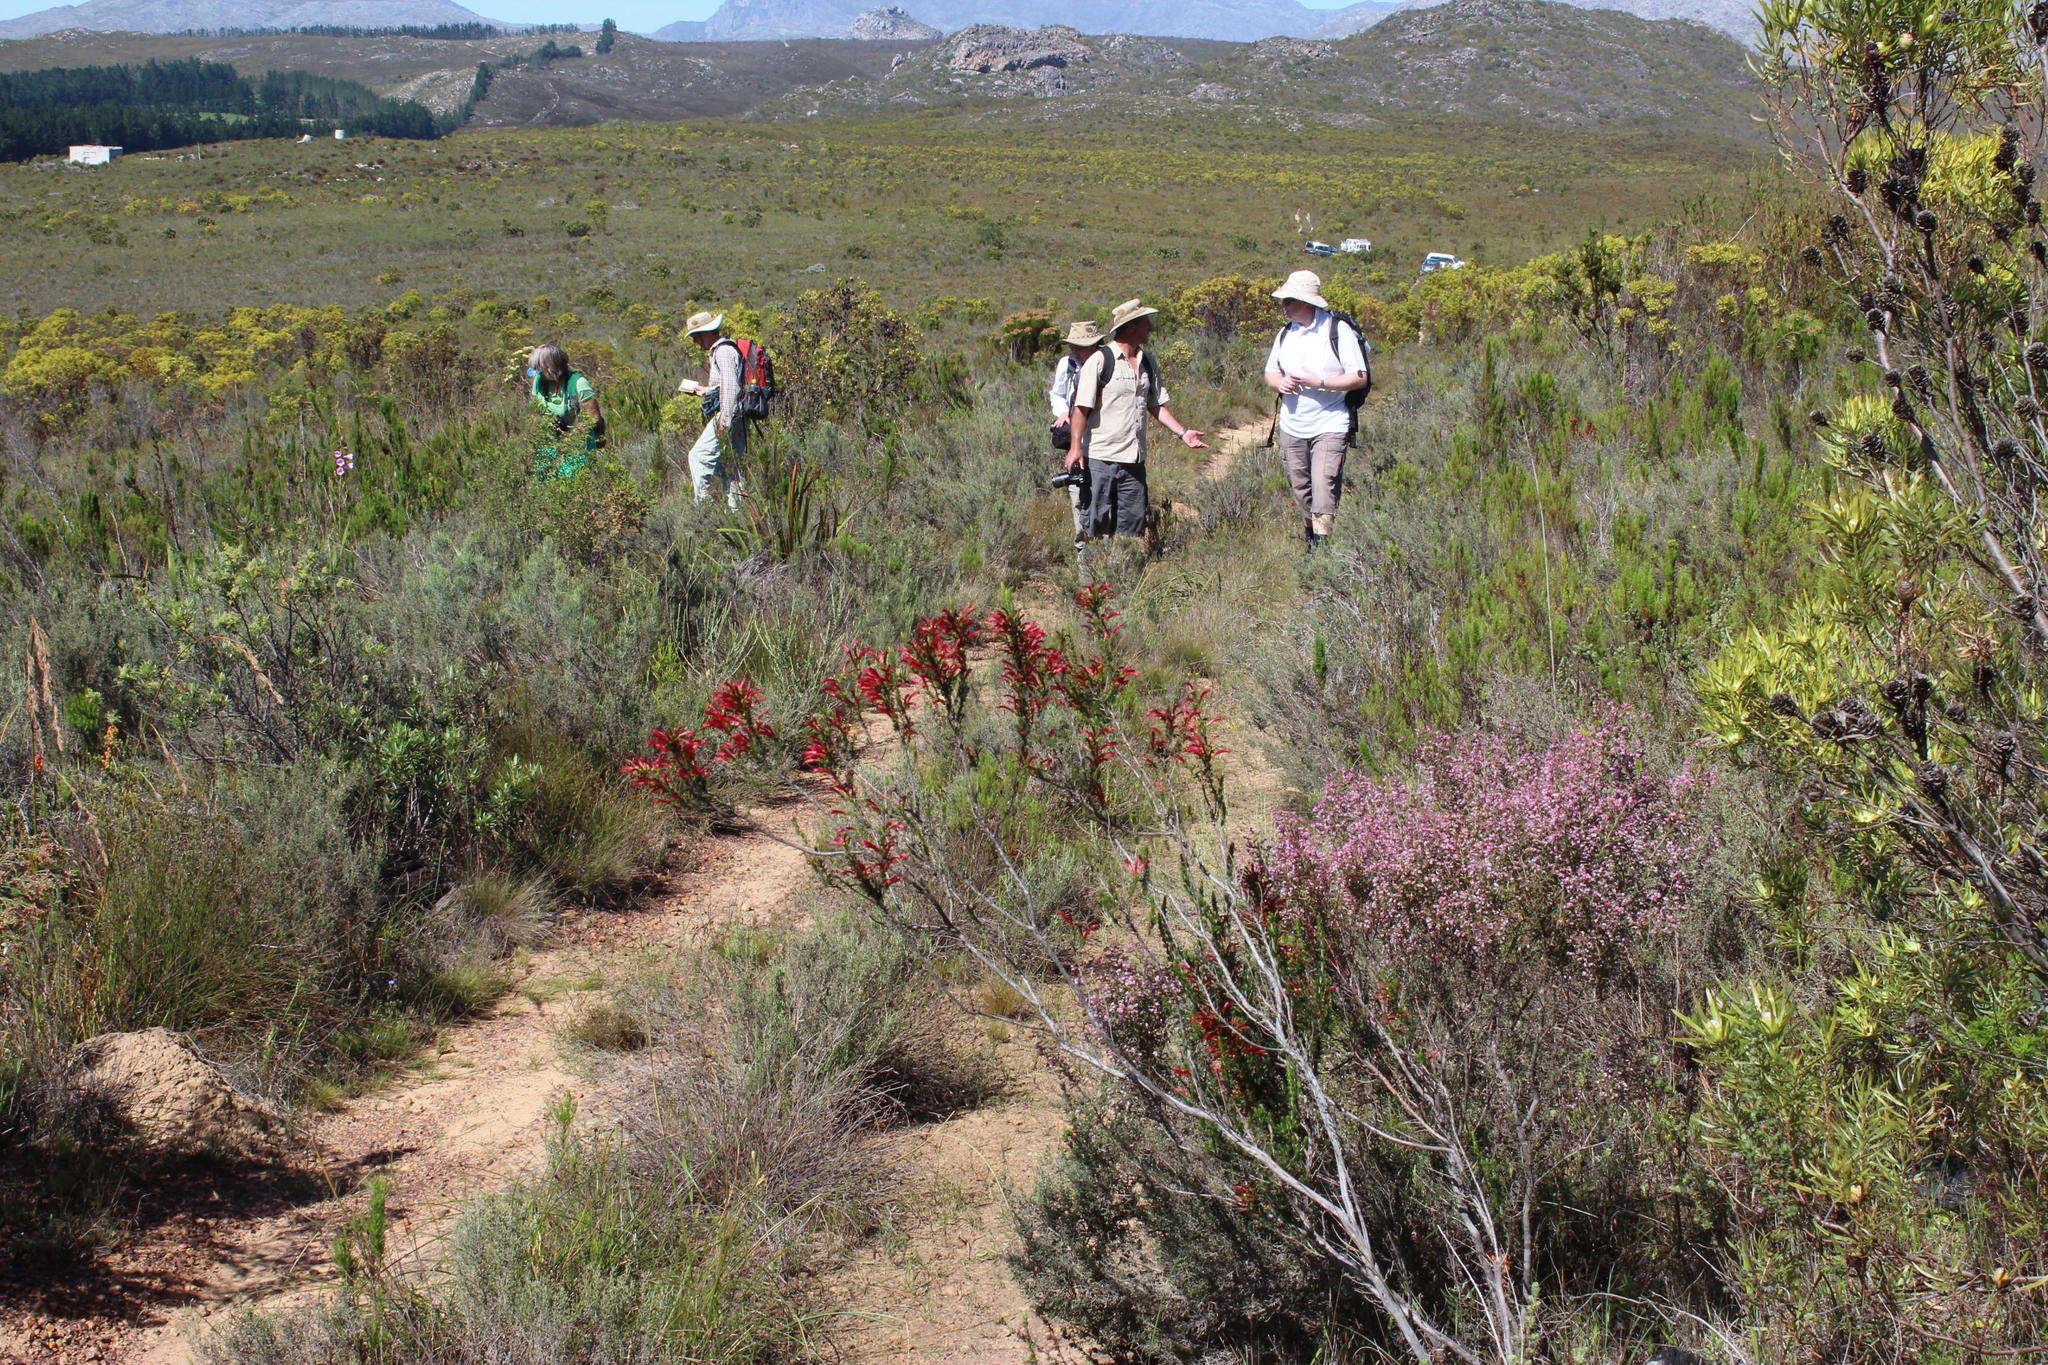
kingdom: Plantae
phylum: Tracheophyta
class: Magnoliopsida
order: Ericales
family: Ericaceae
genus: Erica
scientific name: Erica cruenta
